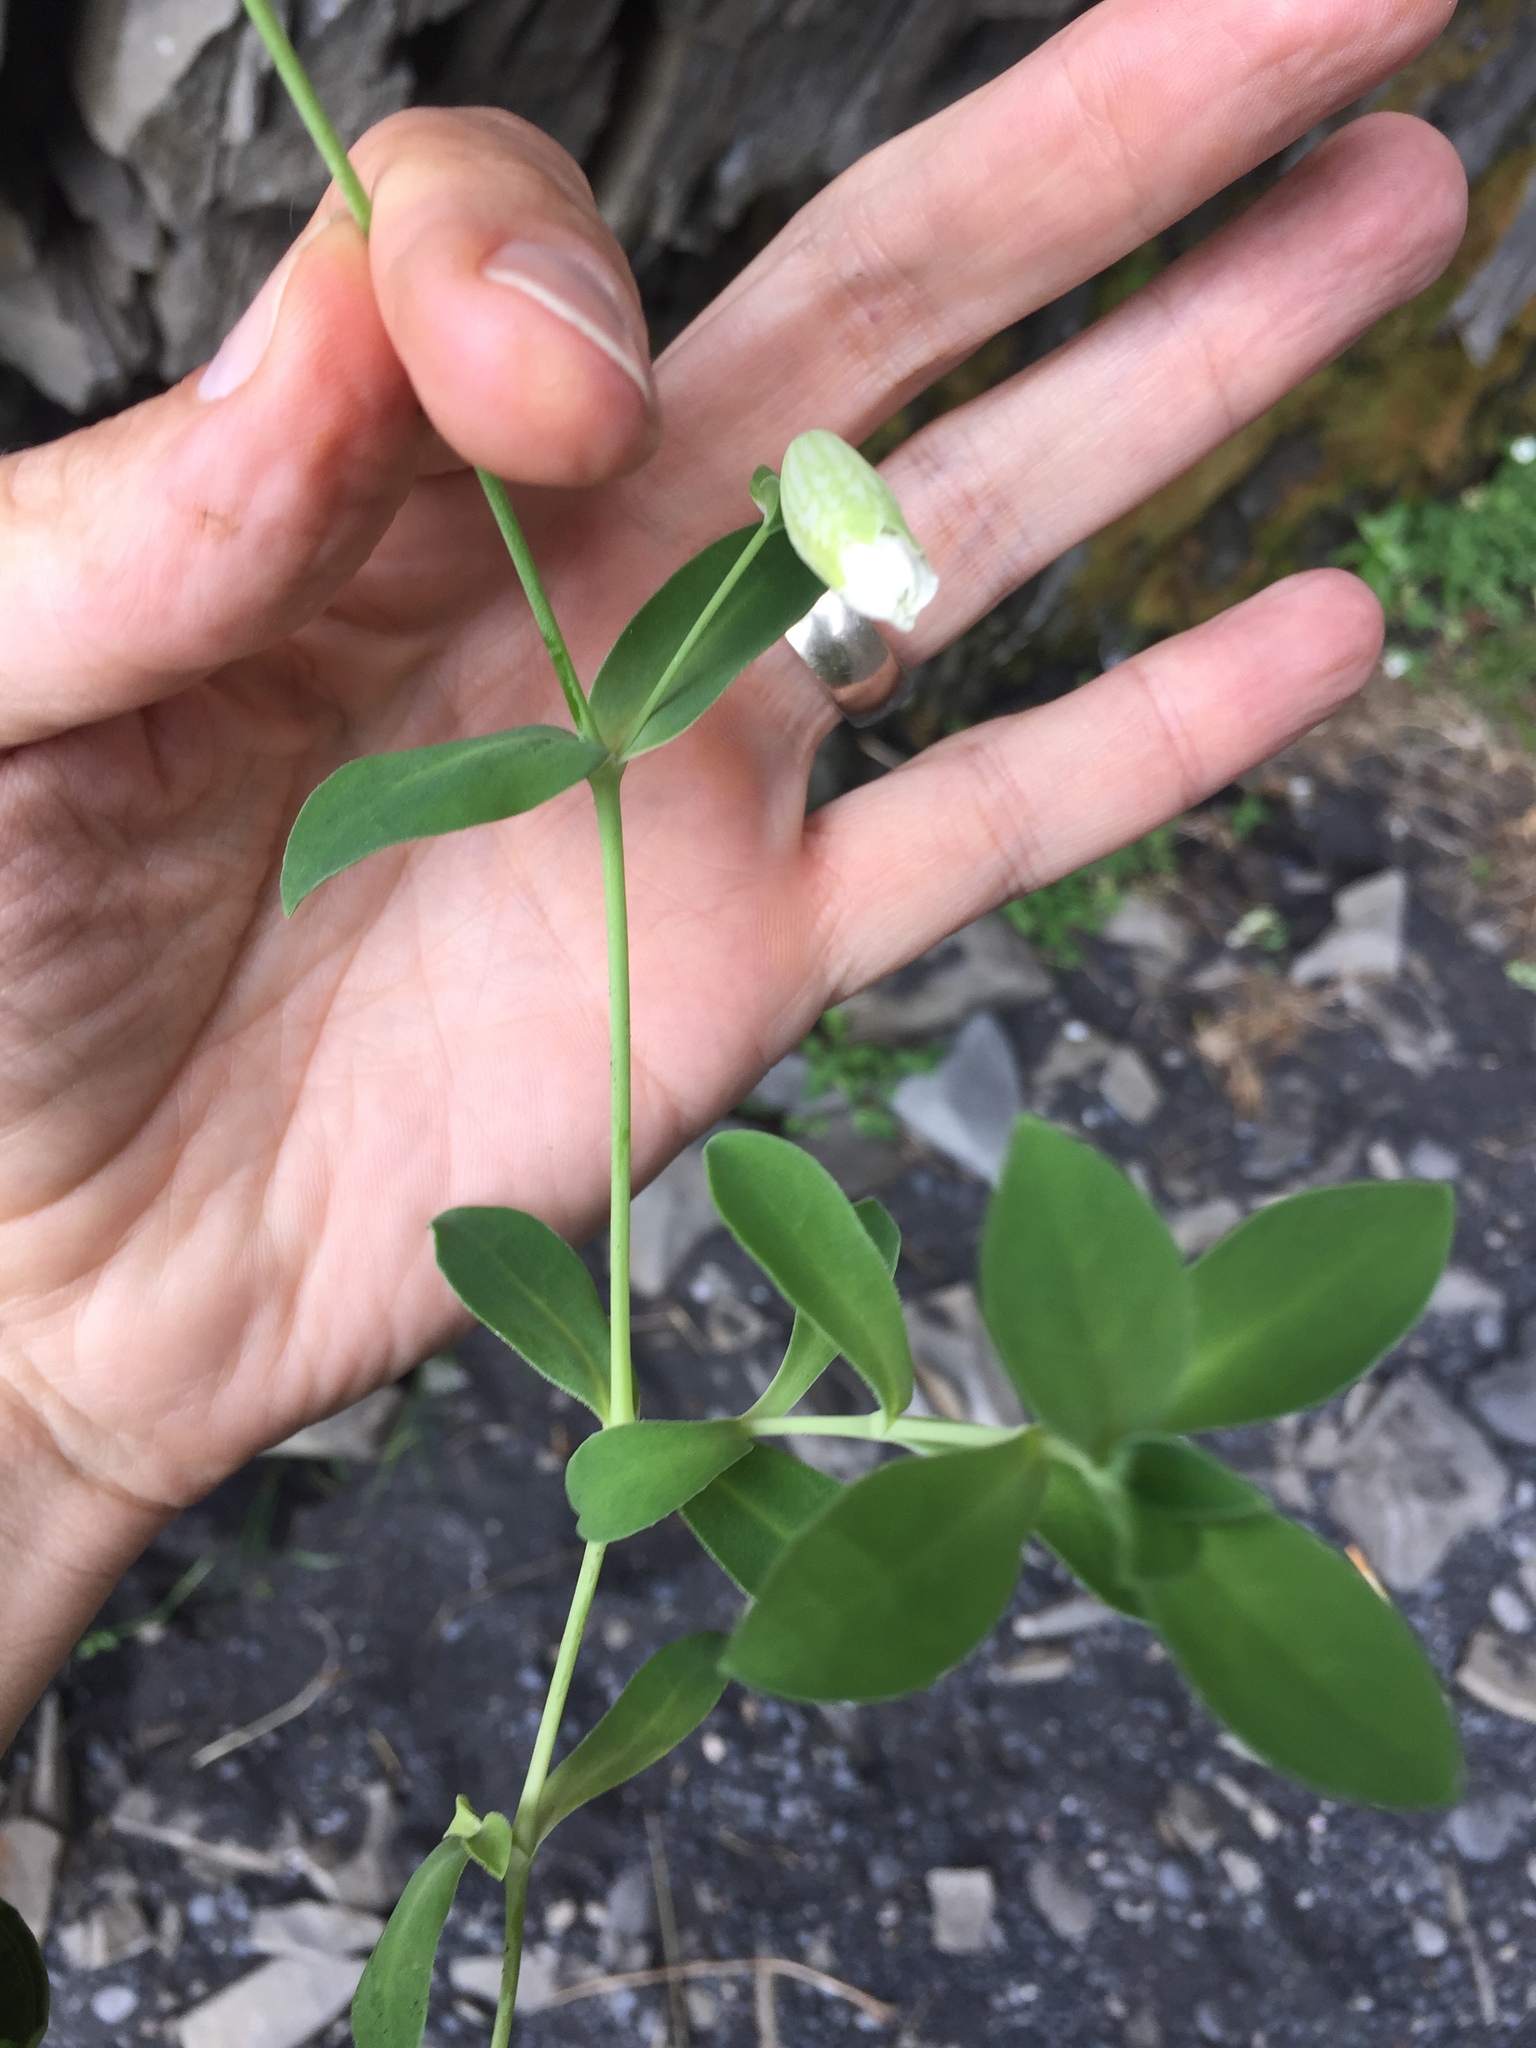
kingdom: Plantae
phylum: Tracheophyta
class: Magnoliopsida
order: Caryophyllales
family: Caryophyllaceae
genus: Silene
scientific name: Silene uniflora
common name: Sea campion
